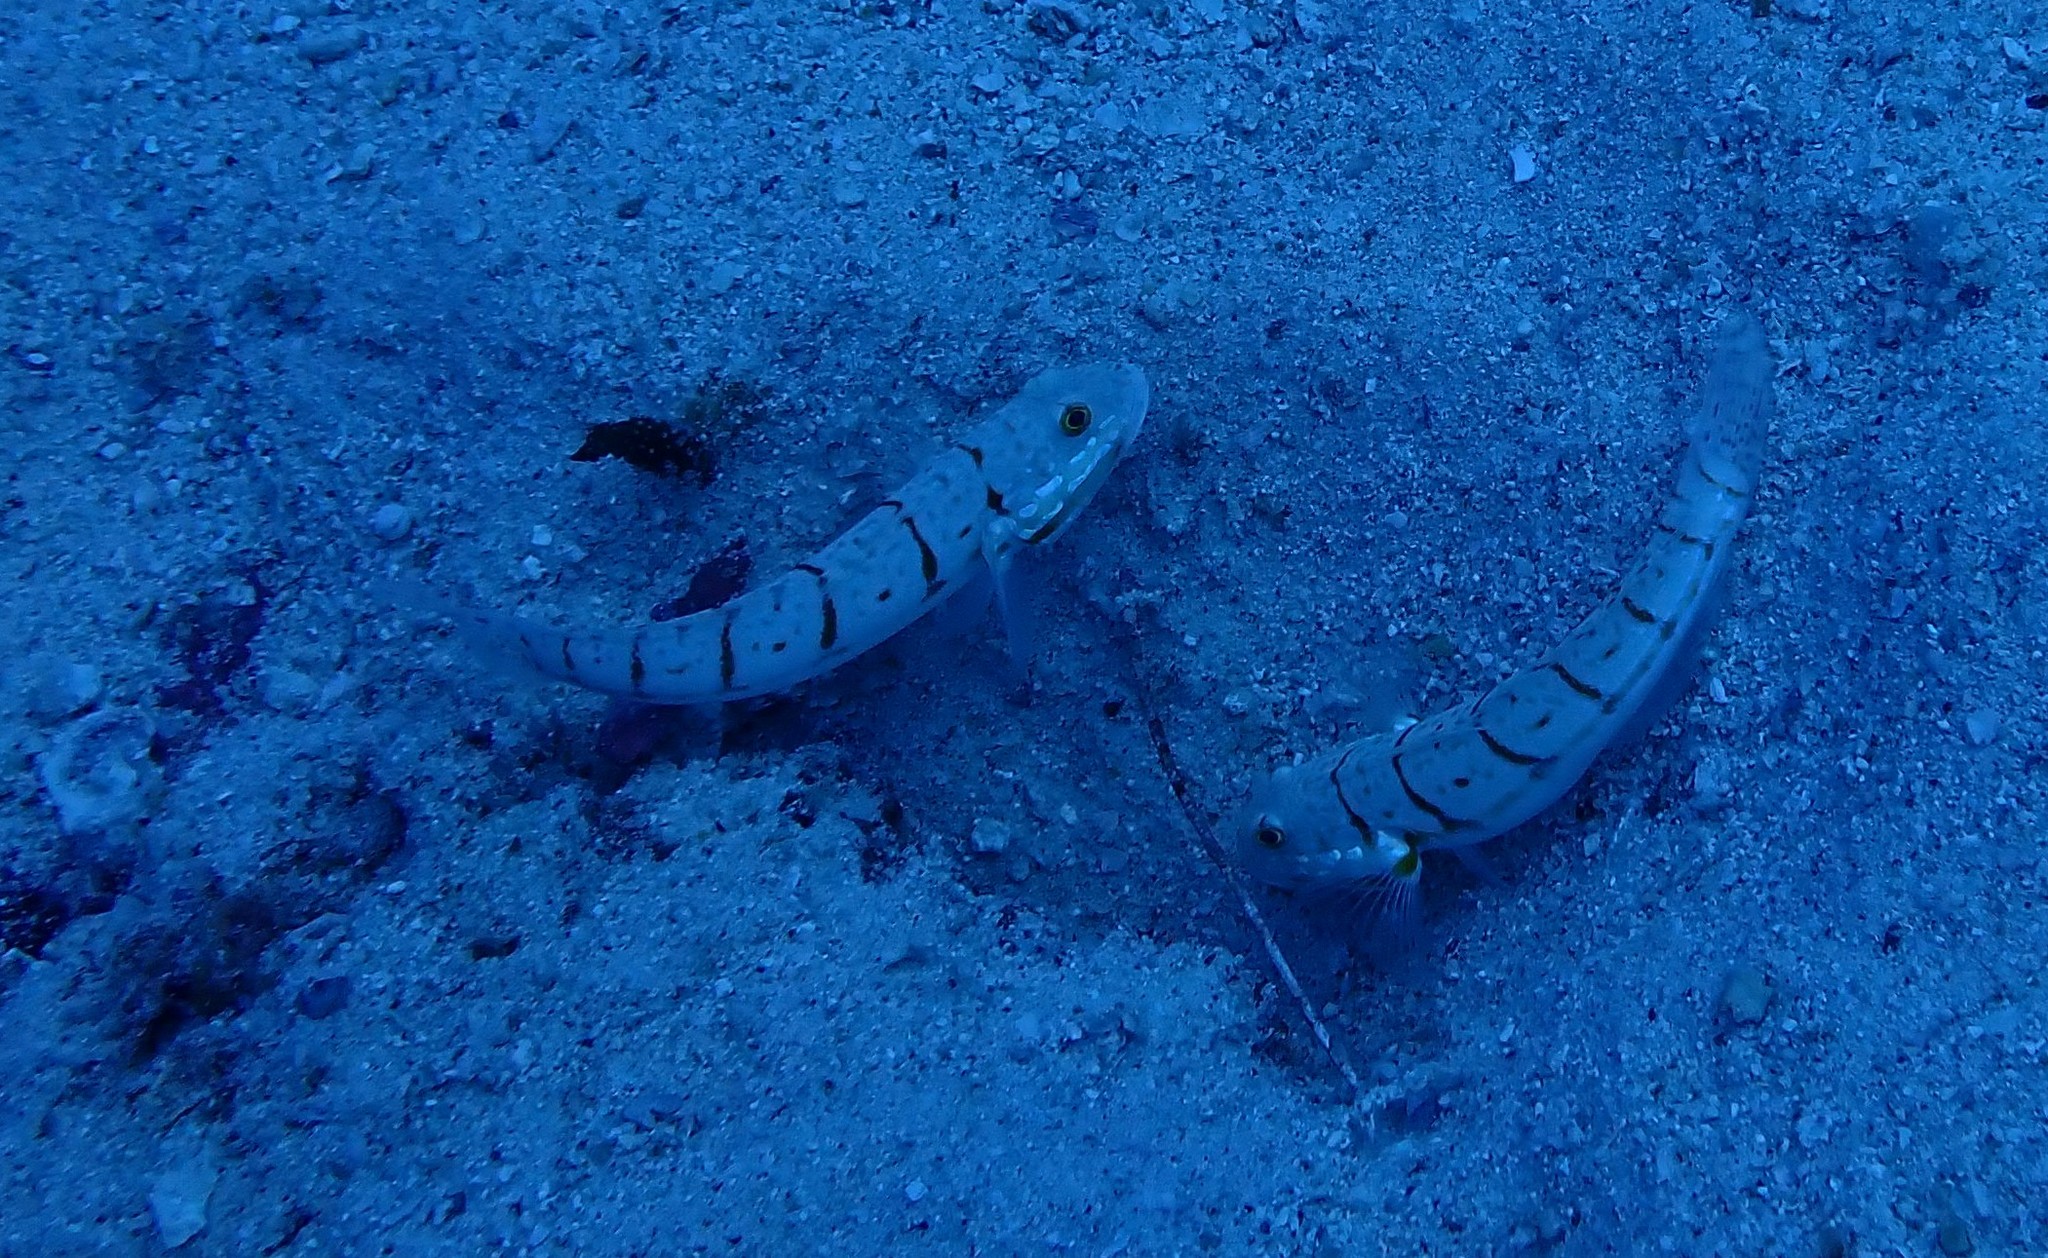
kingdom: Animalia
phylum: Chordata
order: Perciformes
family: Gobiidae
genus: Valenciennea
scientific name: Valenciennea puellaris
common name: Orange-dashed goby
